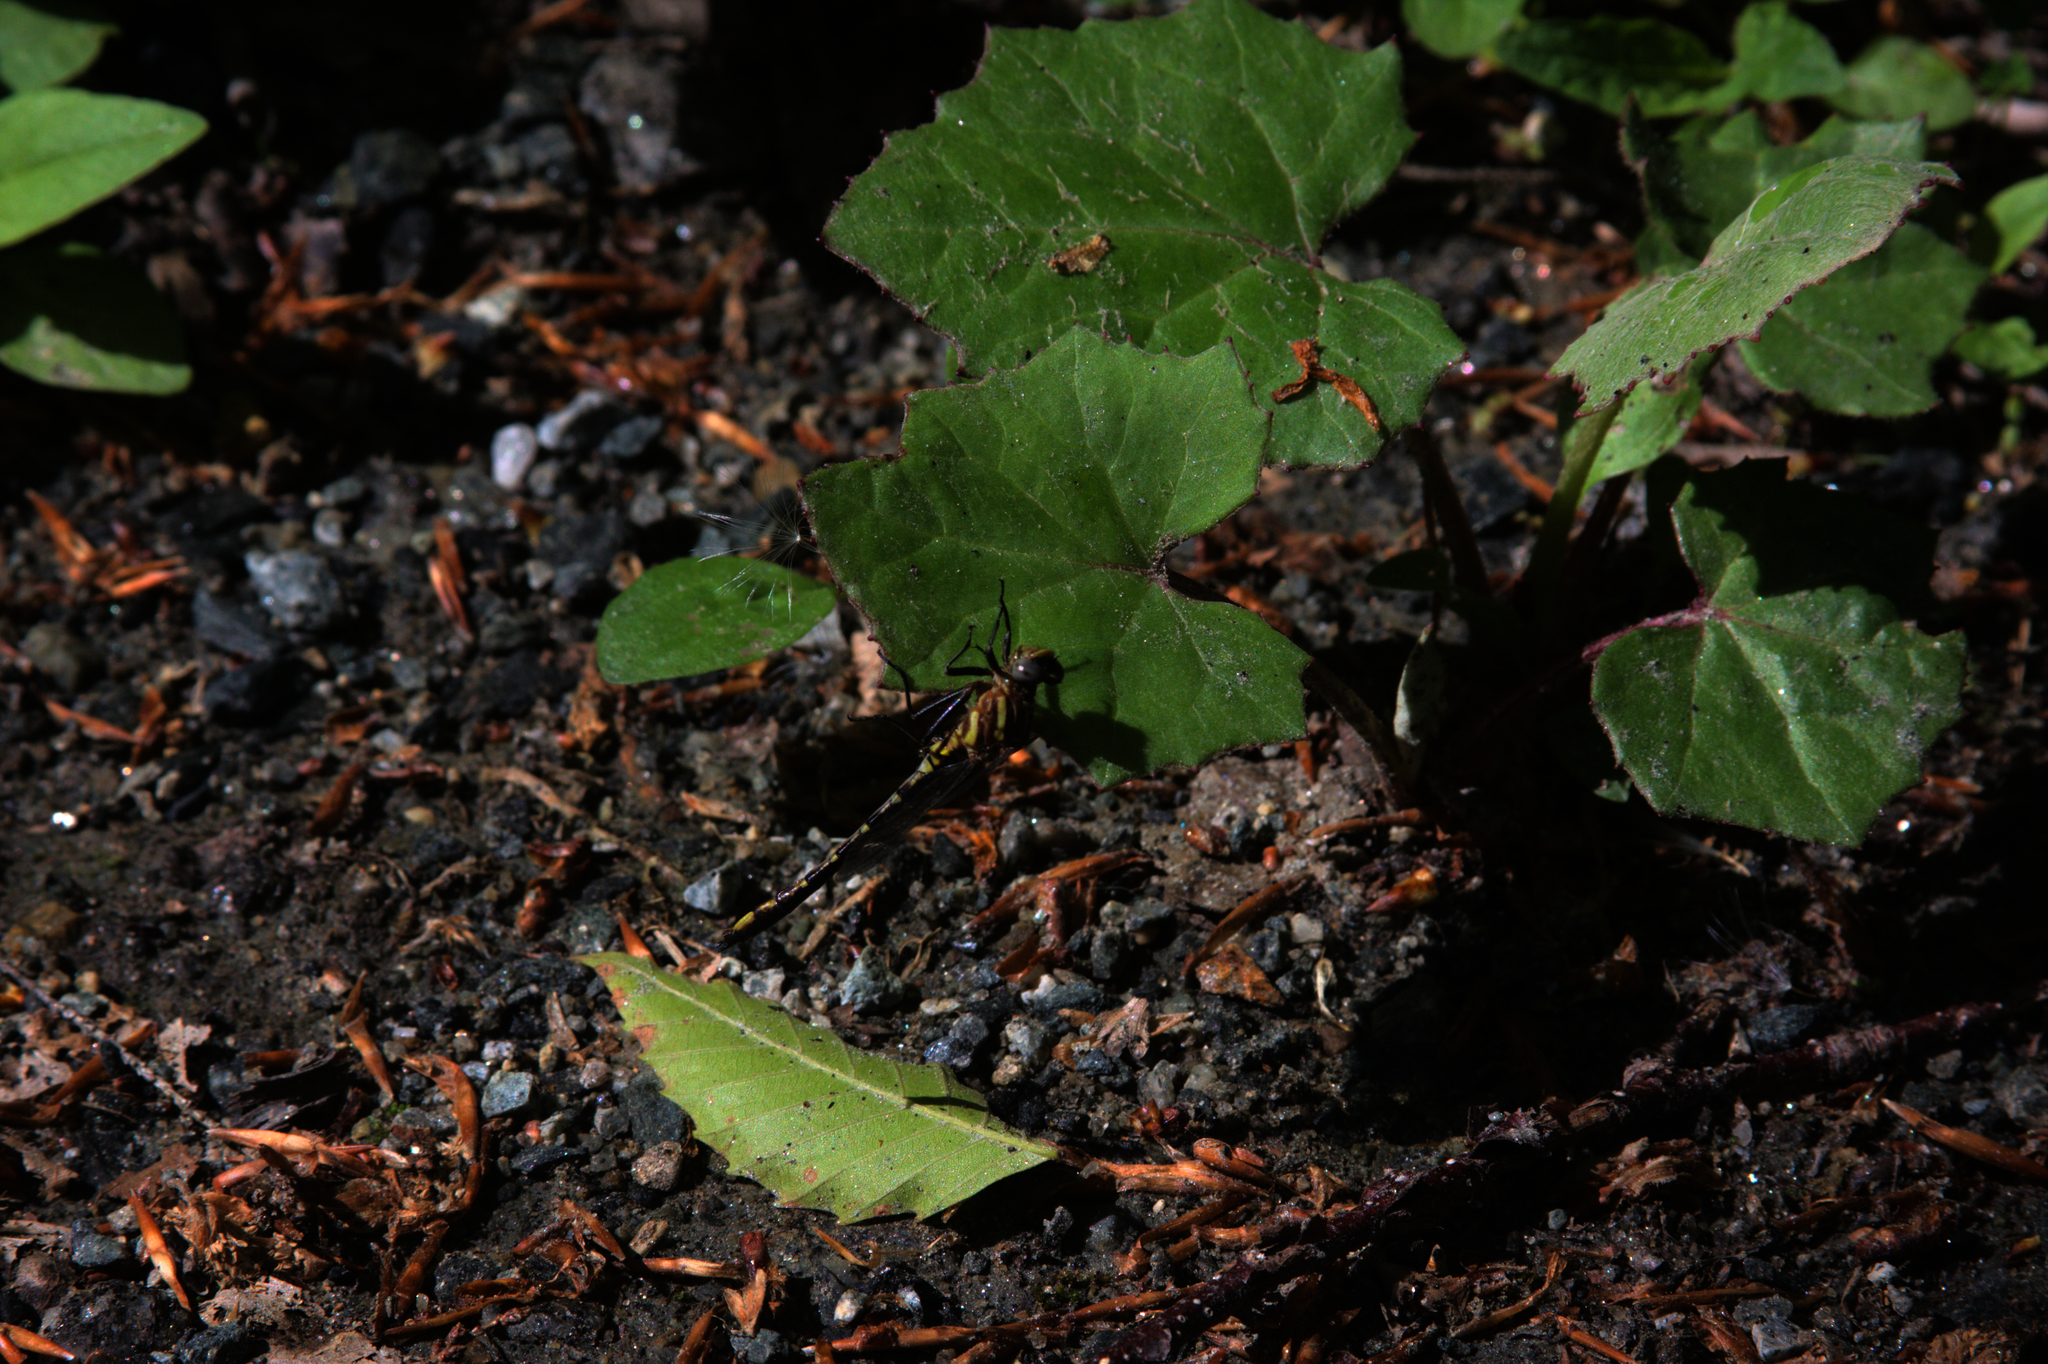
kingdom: Plantae
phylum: Tracheophyta
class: Magnoliopsida
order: Asterales
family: Asteraceae
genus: Tussilago
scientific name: Tussilago farfara
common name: Coltsfoot
